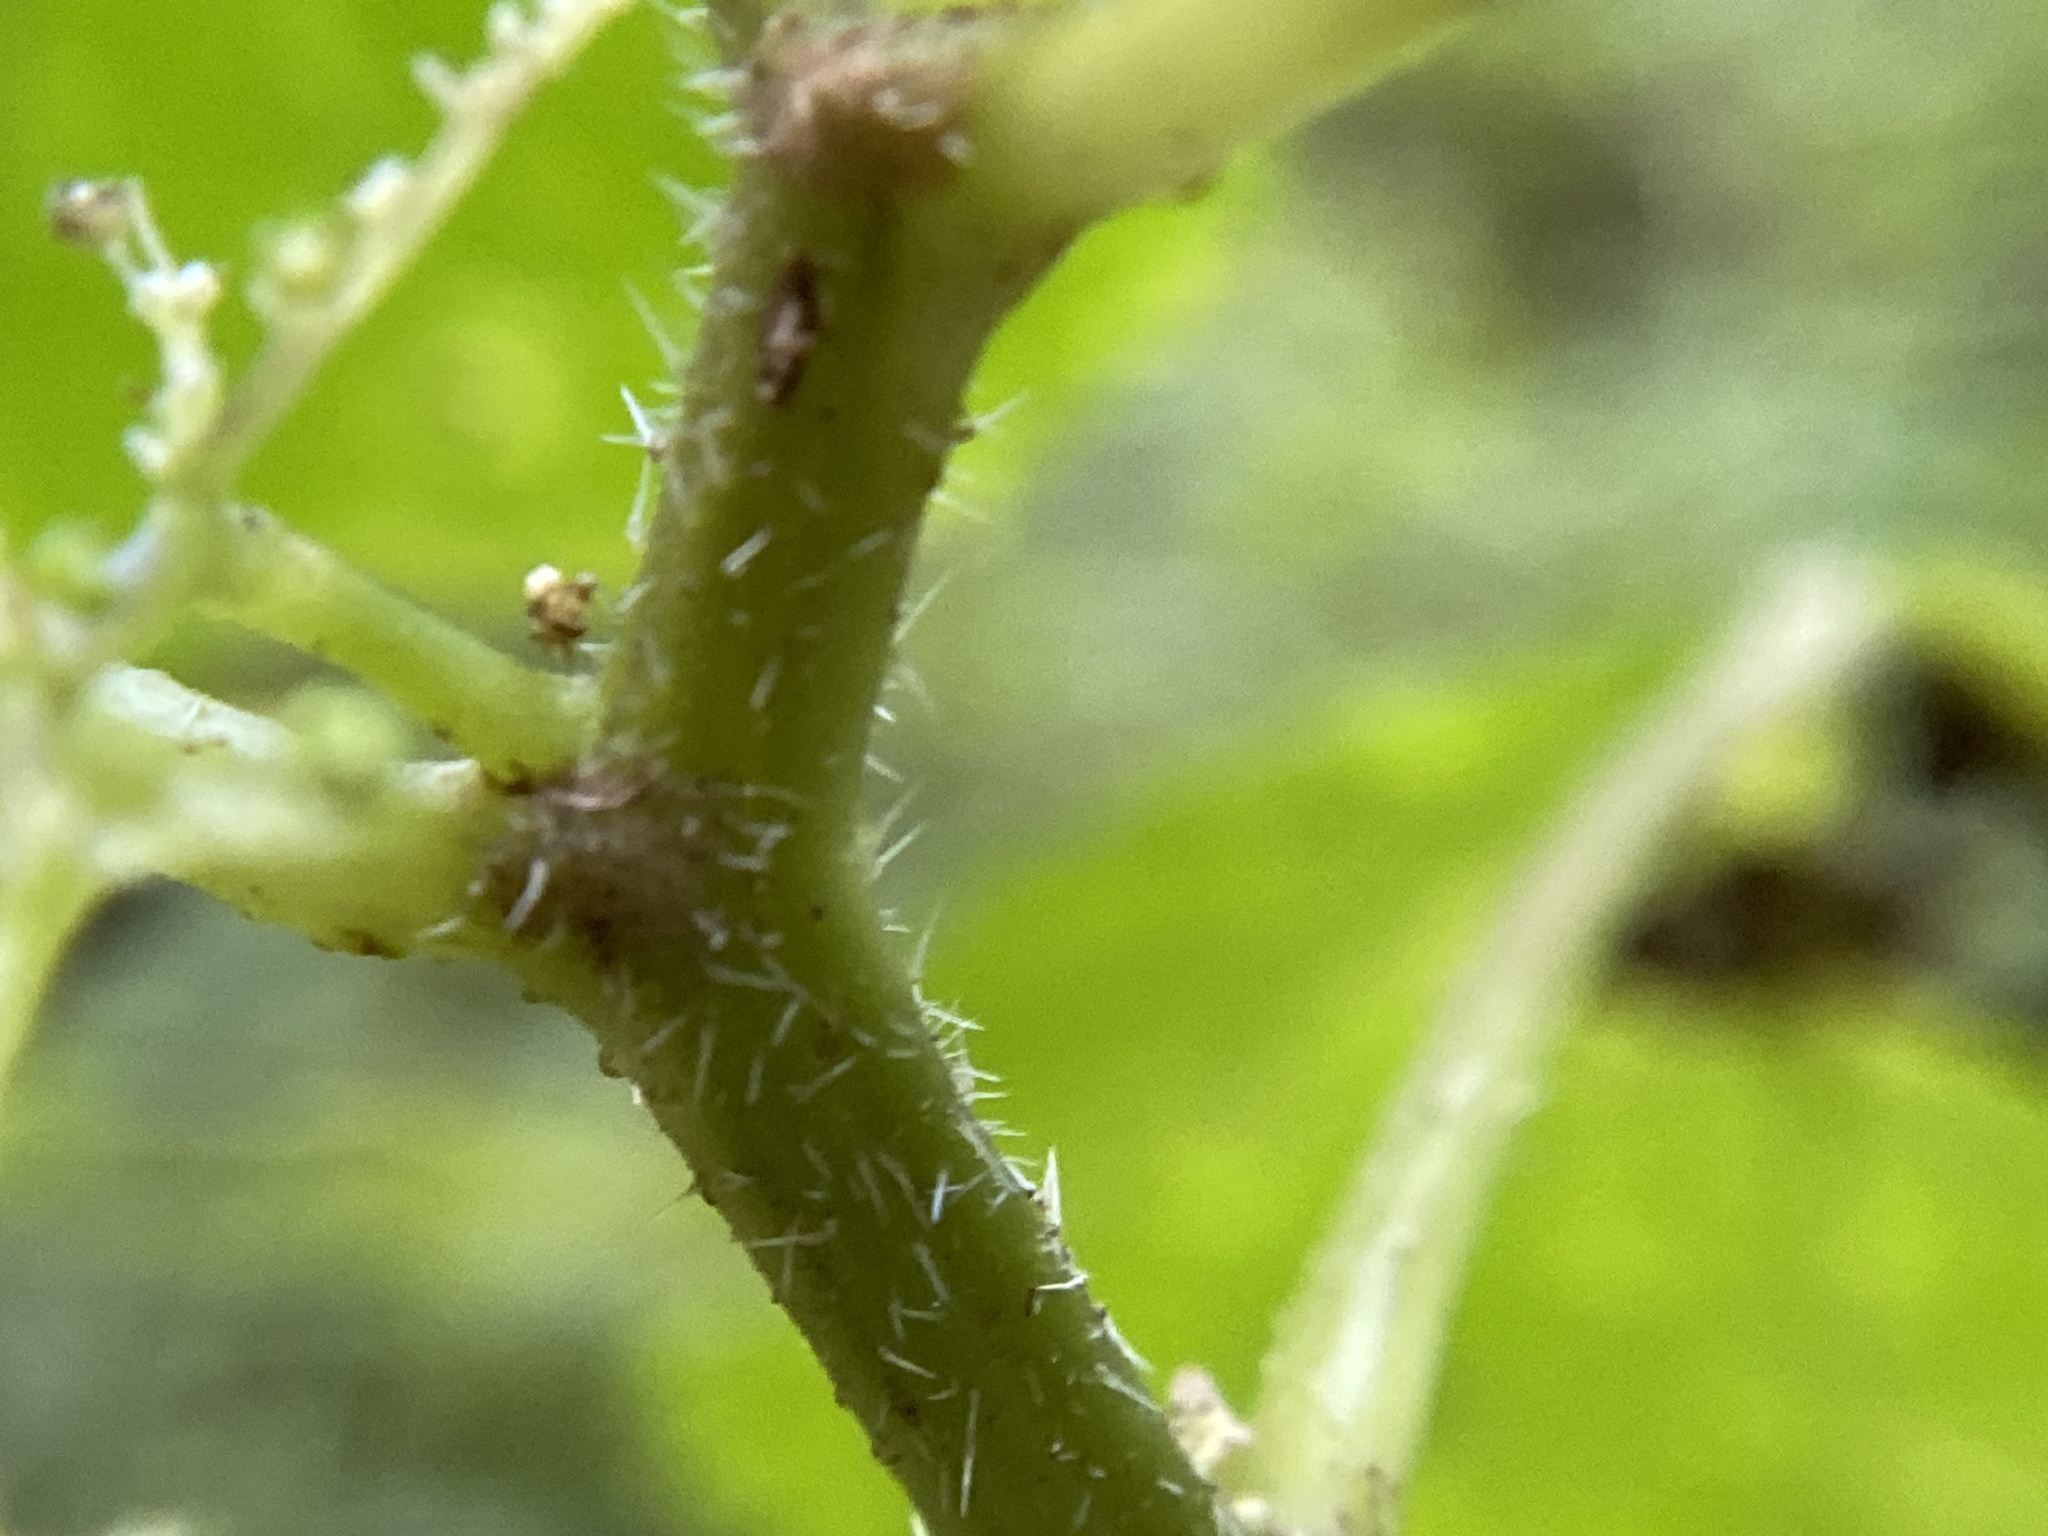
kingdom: Plantae
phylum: Tracheophyta
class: Magnoliopsida
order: Rosales
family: Urticaceae
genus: Laportea
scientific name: Laportea canadensis
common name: Canada nettle
